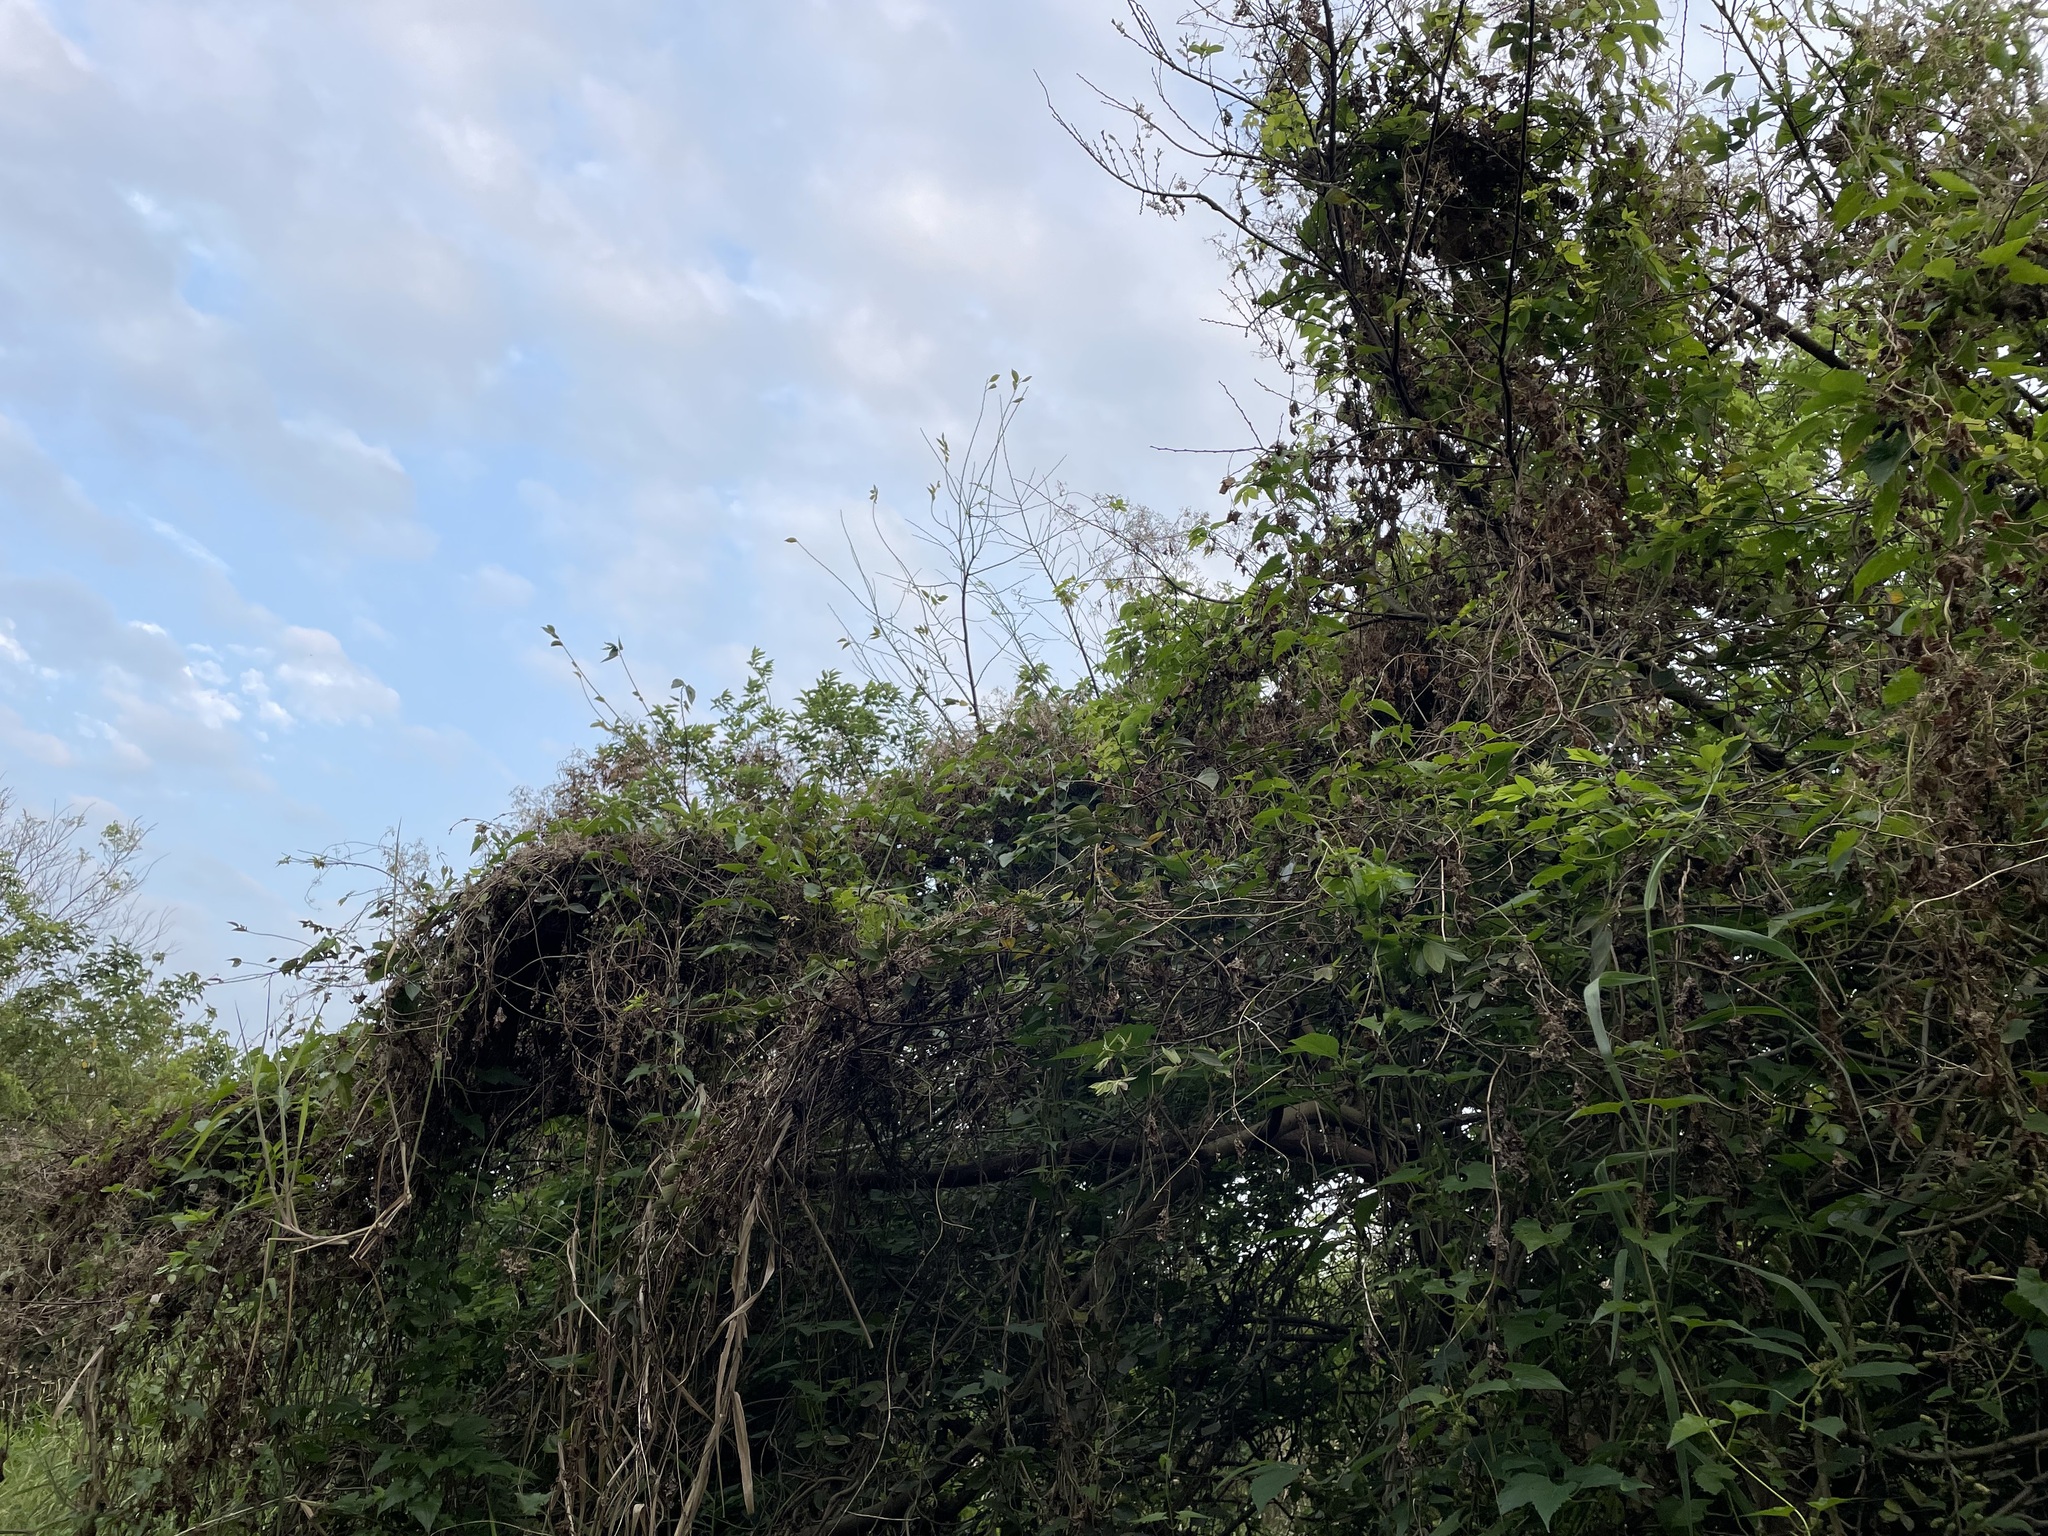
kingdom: Plantae
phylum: Tracheophyta
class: Magnoliopsida
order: Asterales
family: Asteraceae
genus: Mikania
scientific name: Mikania micrantha
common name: Mile-a-minute
